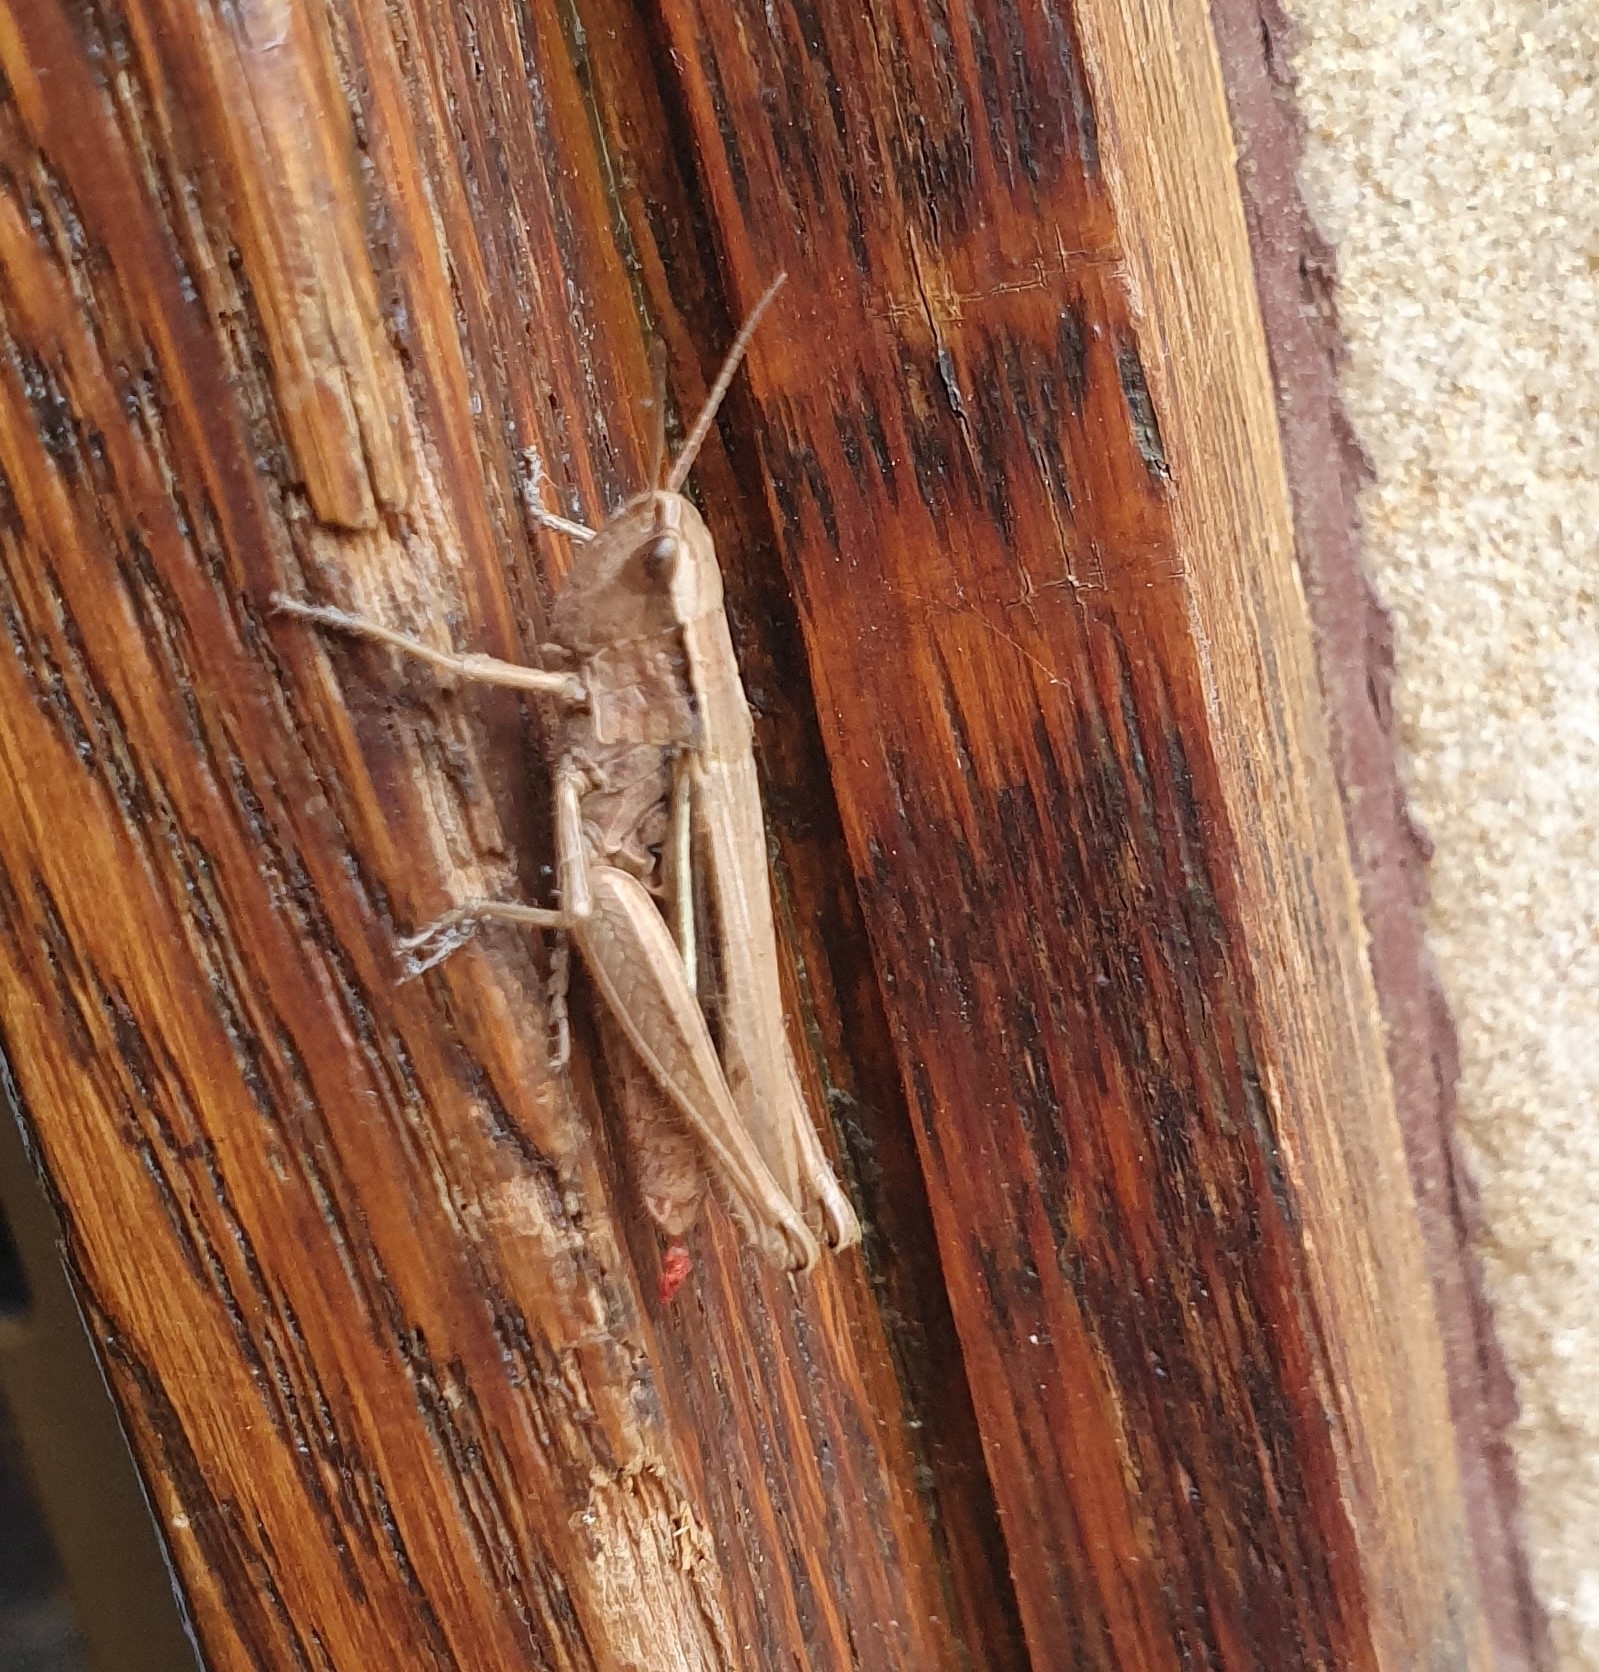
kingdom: Animalia
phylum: Arthropoda
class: Insecta
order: Orthoptera
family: Acrididae
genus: Chorthippus
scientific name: Chorthippus albomarginatus
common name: Lesser marsh grasshopper
